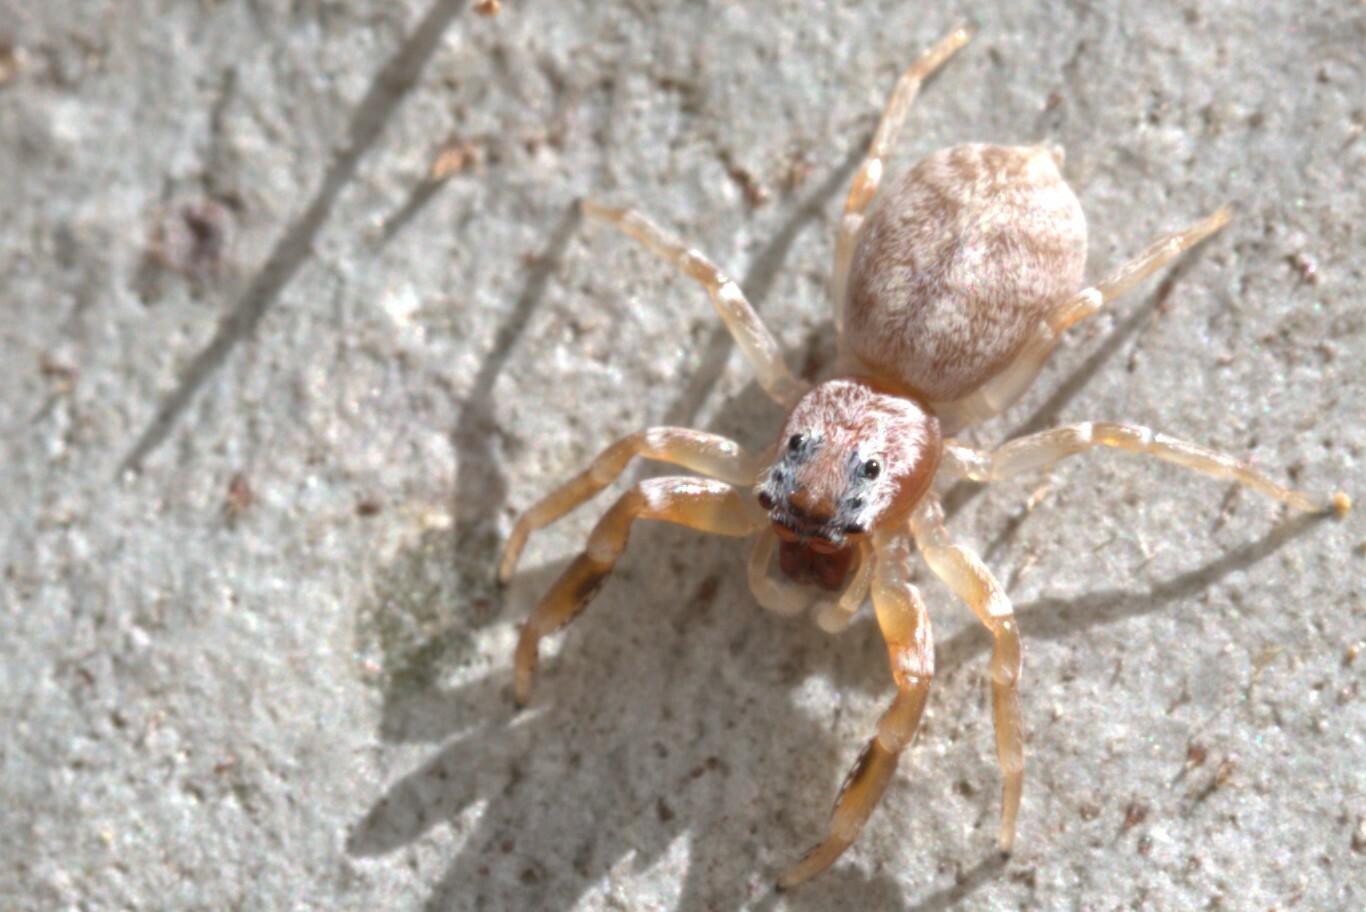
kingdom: Animalia
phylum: Arthropoda
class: Arachnida
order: Araneae
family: Salticidae
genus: Arasia
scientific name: Arasia mollicoma
